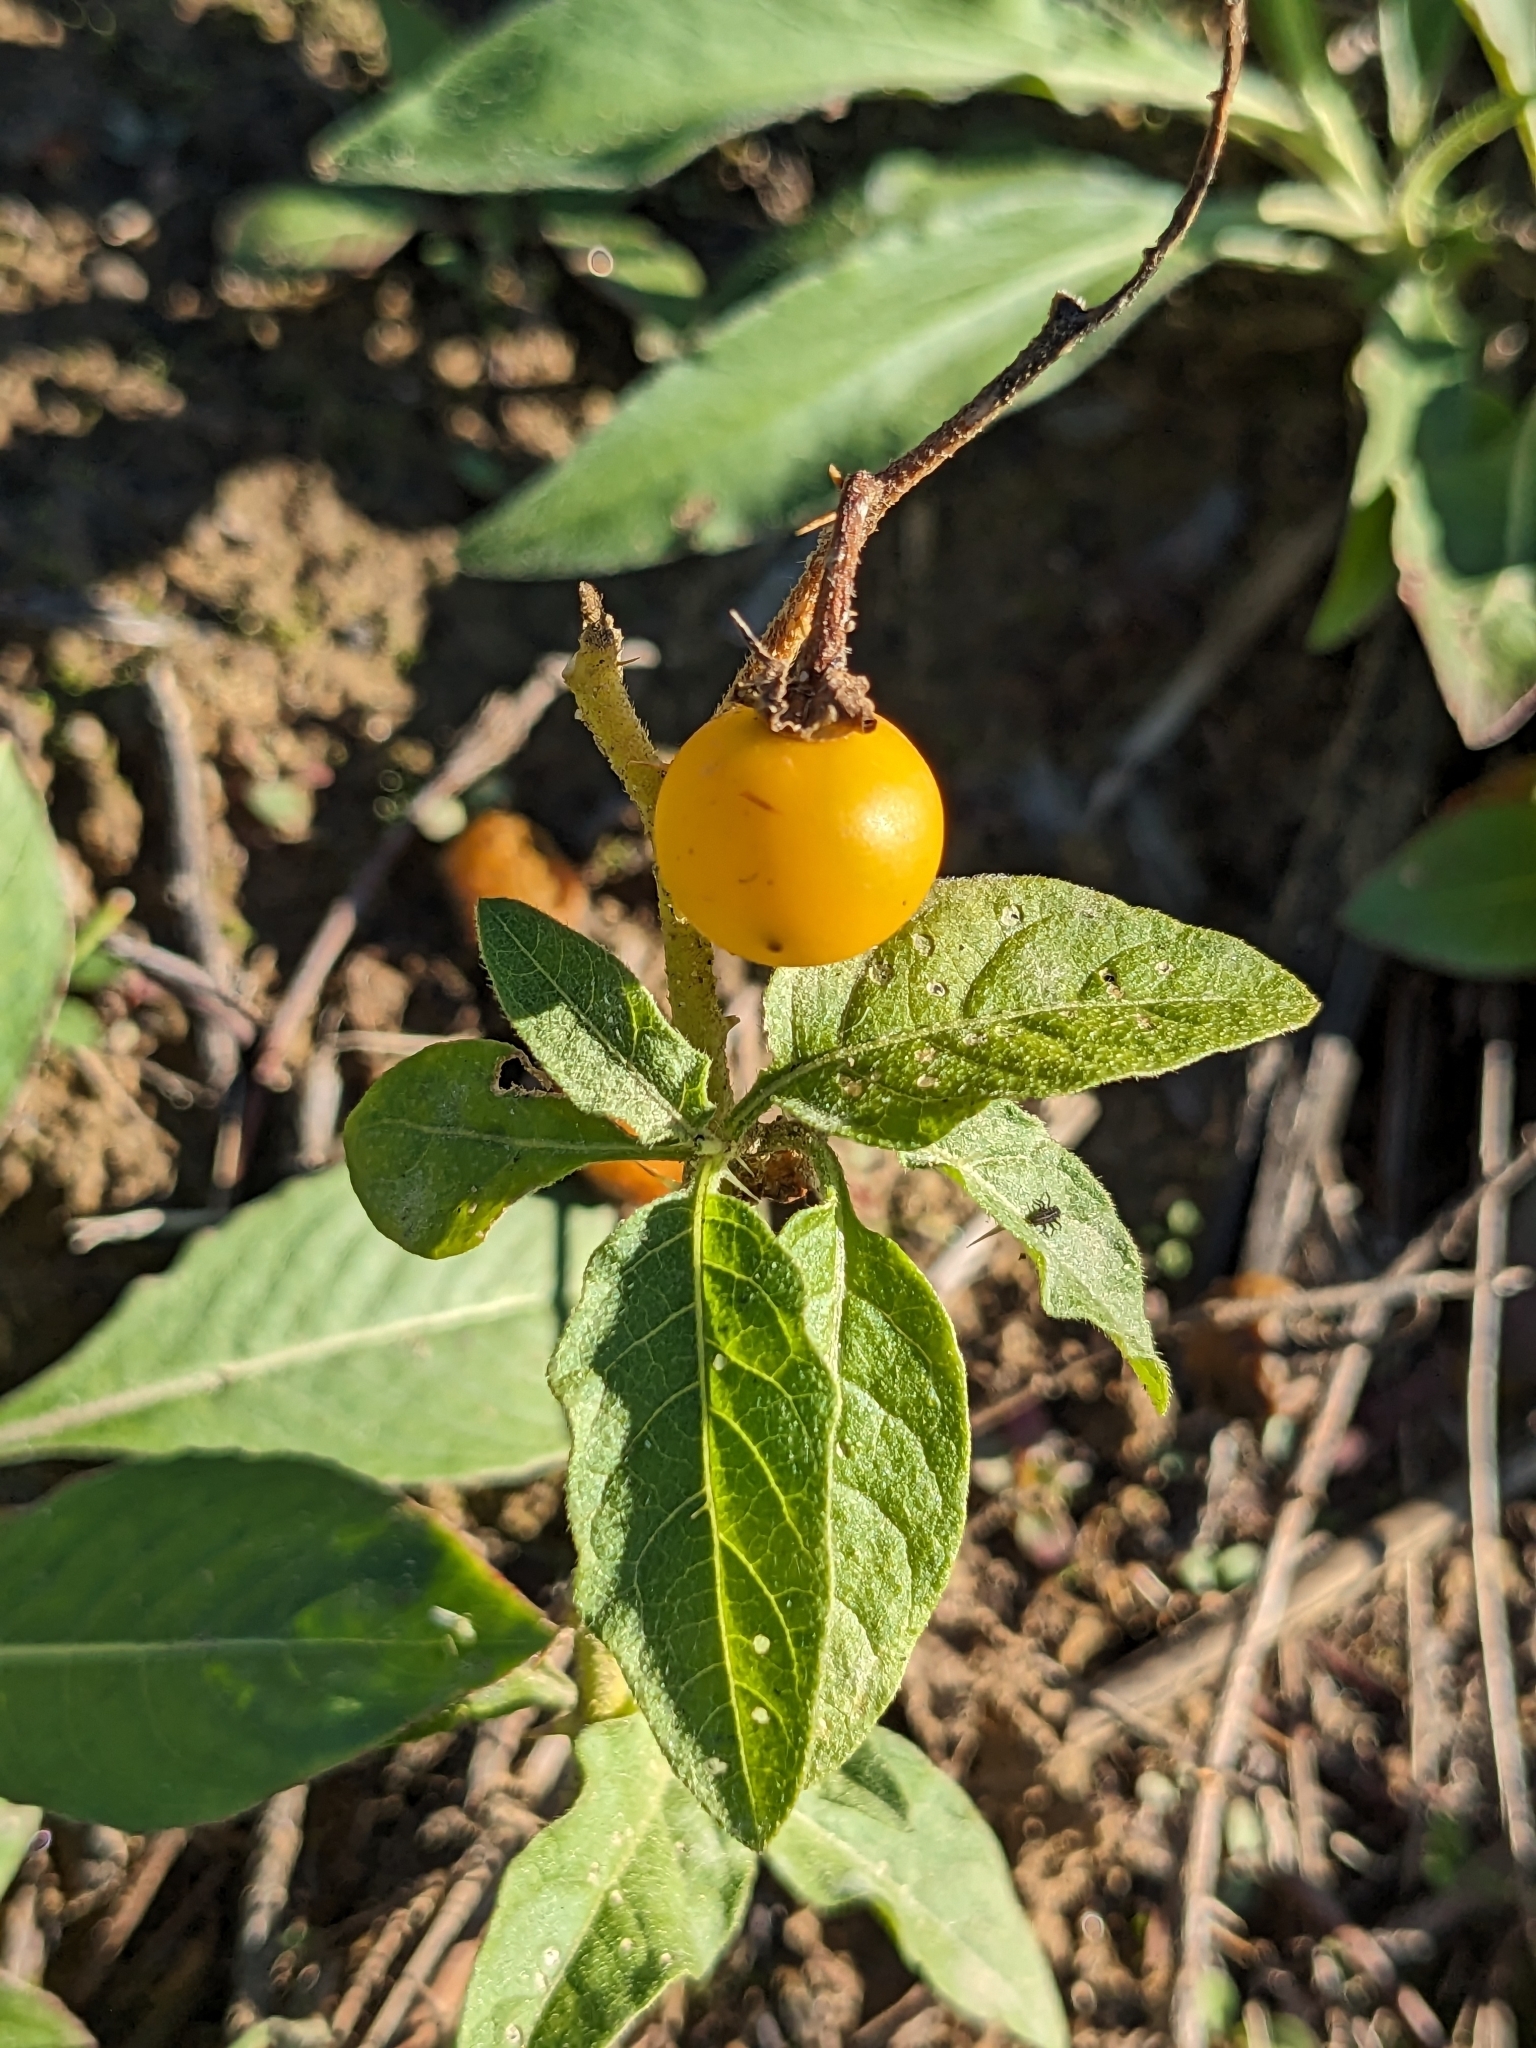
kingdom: Plantae
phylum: Tracheophyta
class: Magnoliopsida
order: Solanales
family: Solanaceae
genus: Solanum
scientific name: Solanum carolinense
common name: Horse-nettle
